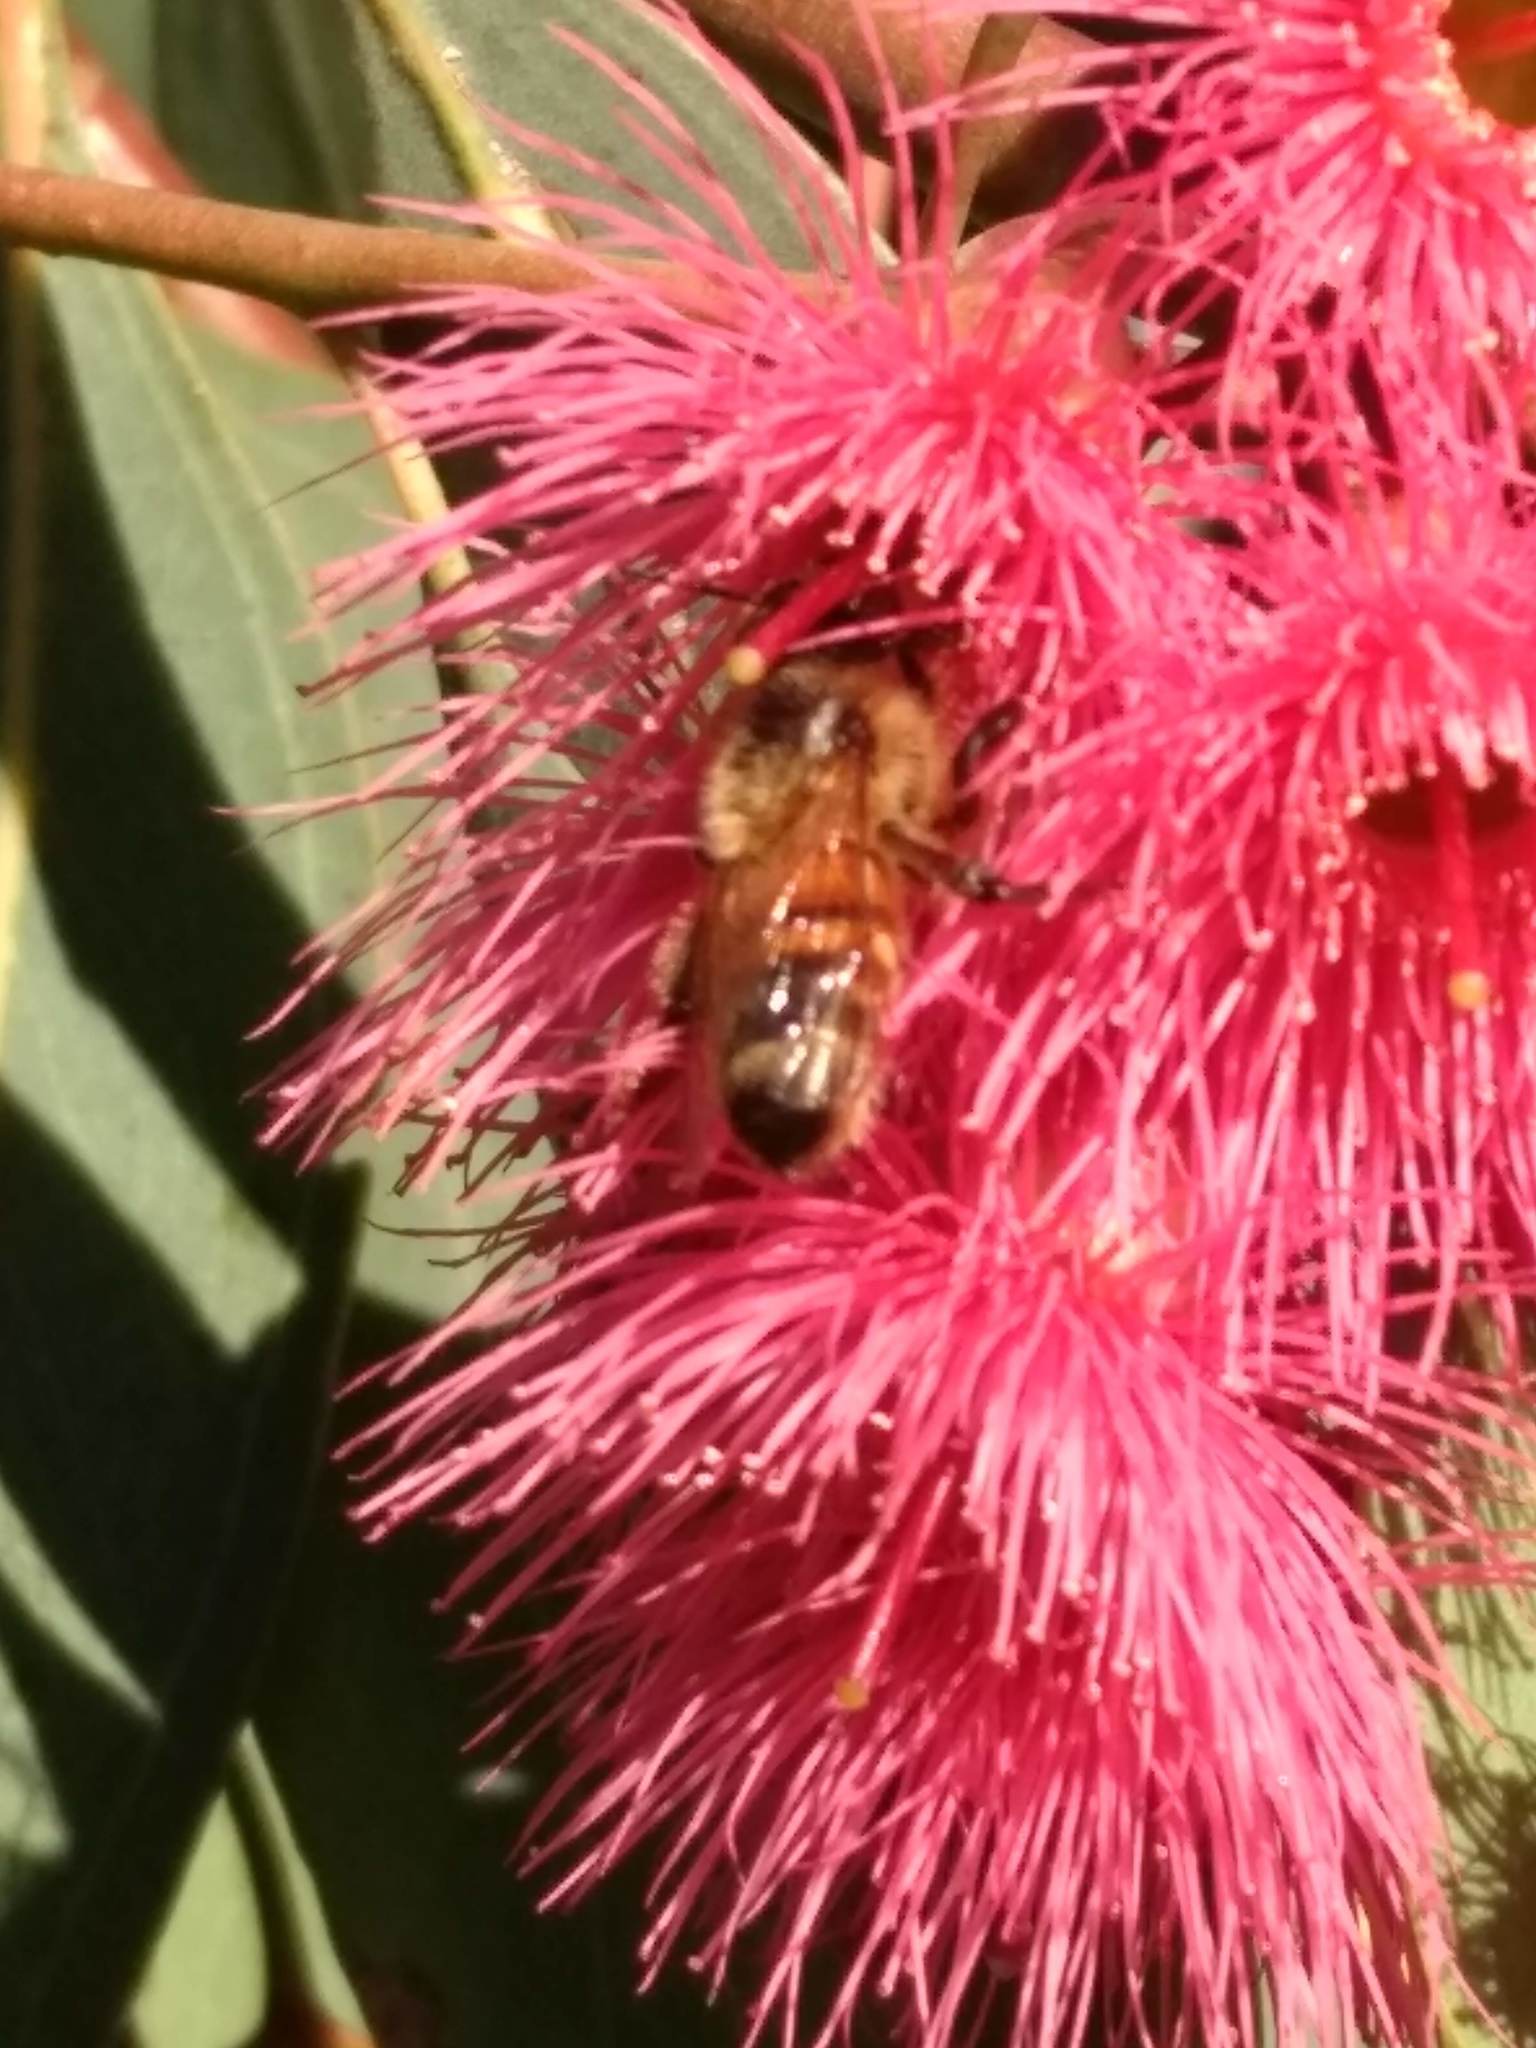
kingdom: Animalia
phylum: Arthropoda
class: Insecta
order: Hymenoptera
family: Apidae
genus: Apis
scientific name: Apis mellifera
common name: Honey bee
